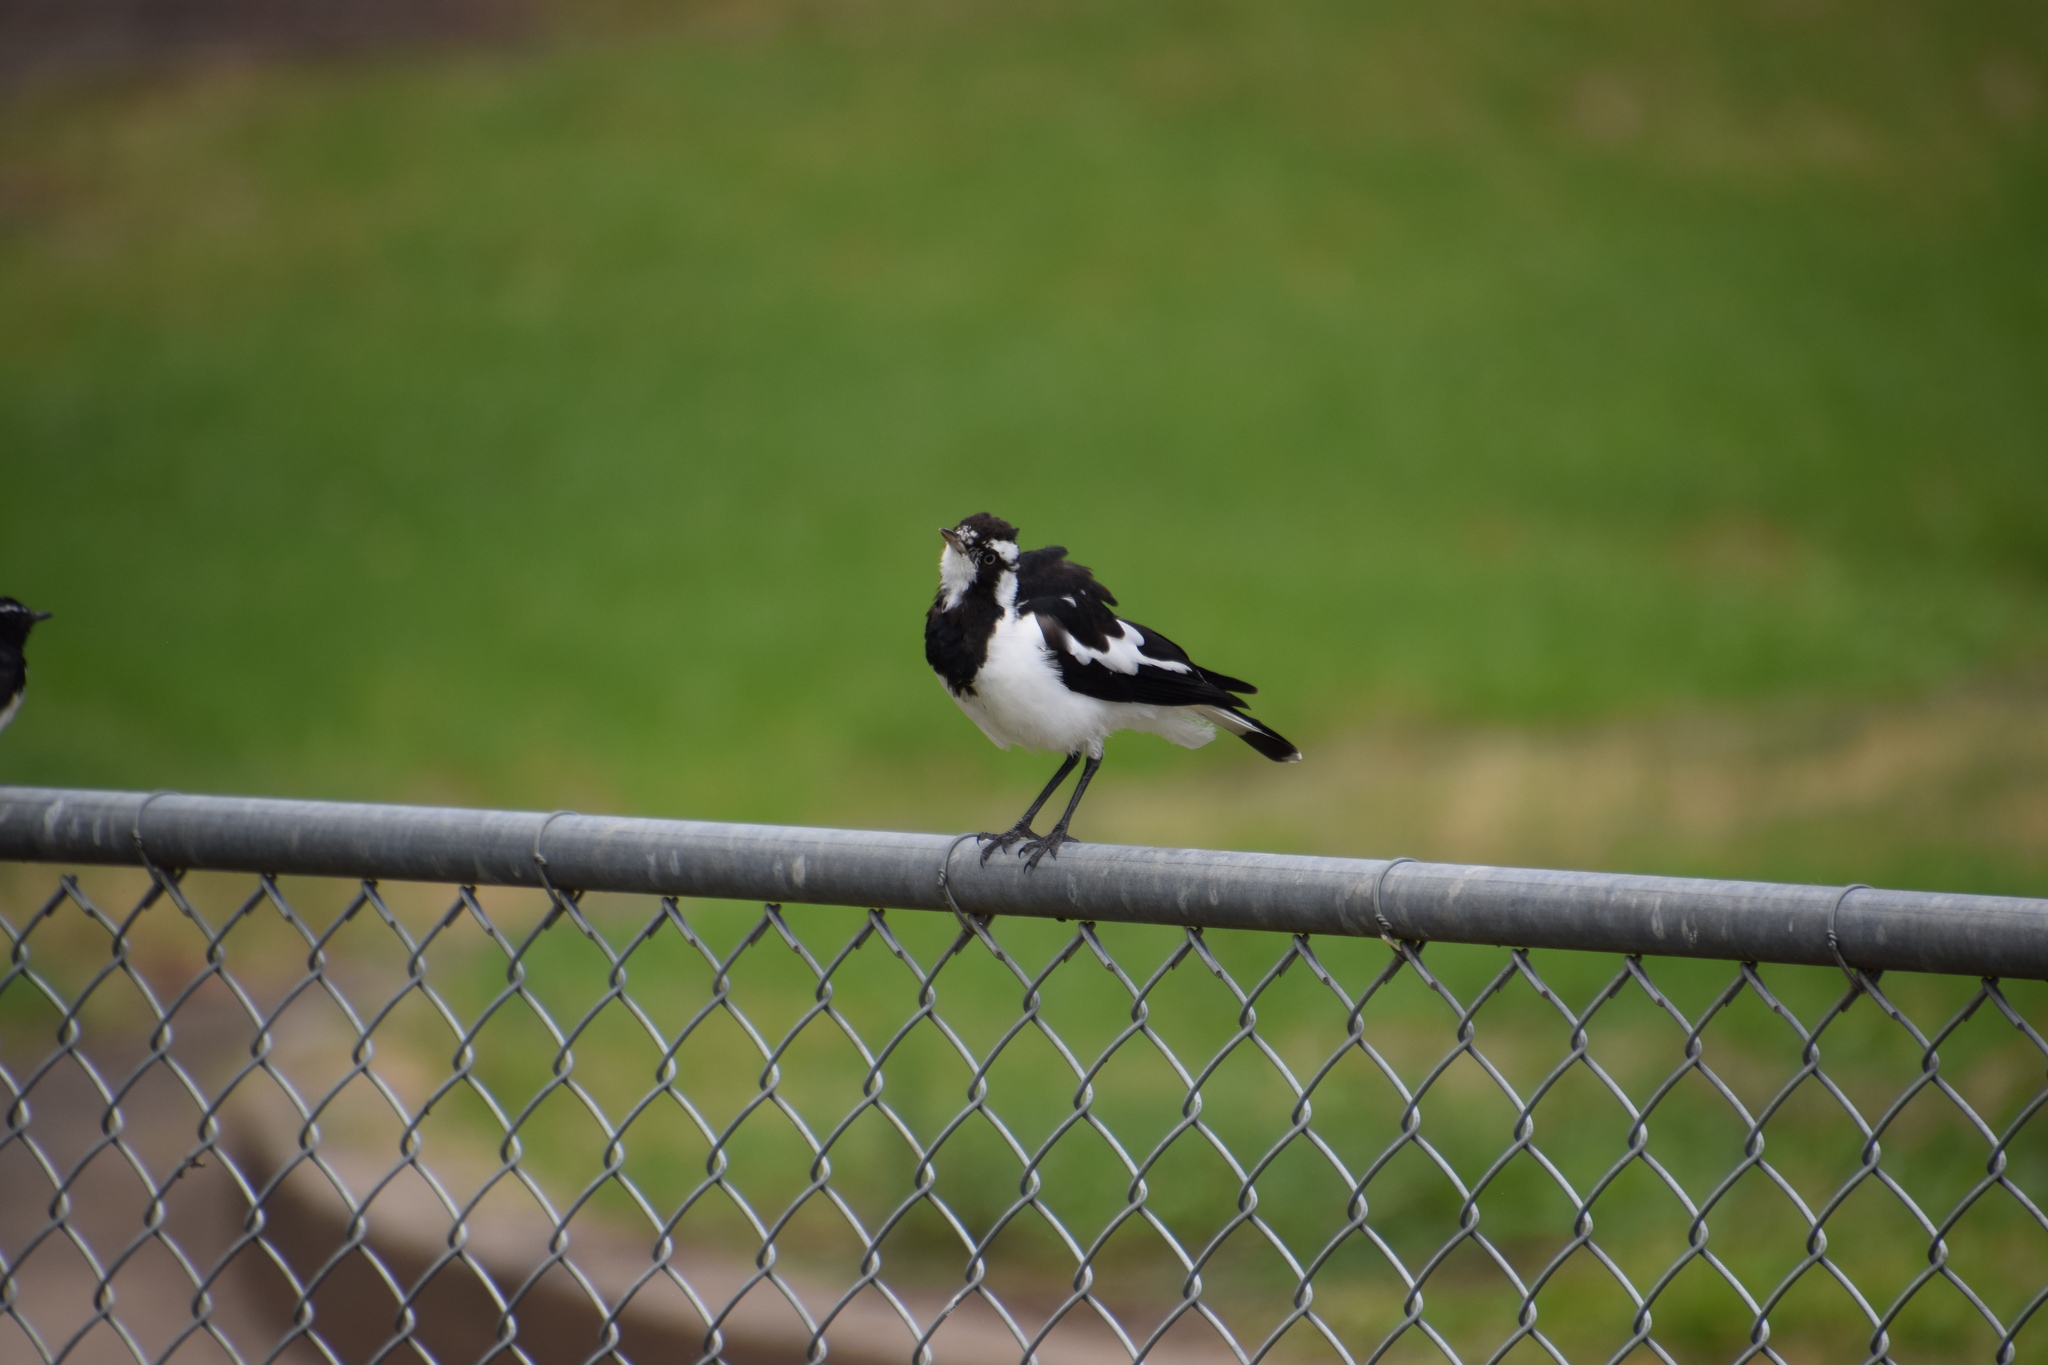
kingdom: Animalia
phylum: Chordata
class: Aves
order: Passeriformes
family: Monarchidae
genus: Grallina
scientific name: Grallina cyanoleuca
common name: Magpie-lark
